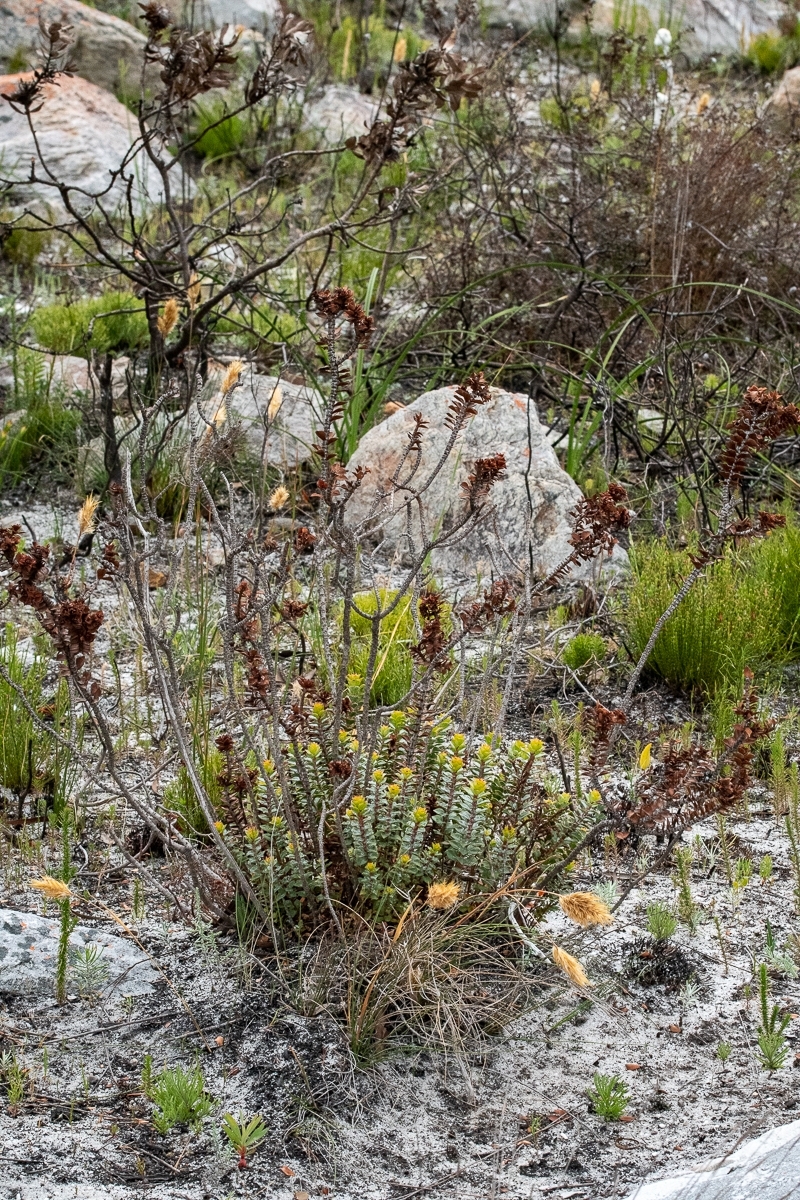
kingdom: Plantae
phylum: Tracheophyta
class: Magnoliopsida
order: Myrtales
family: Penaeaceae
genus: Saltera
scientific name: Saltera sarcocolla
